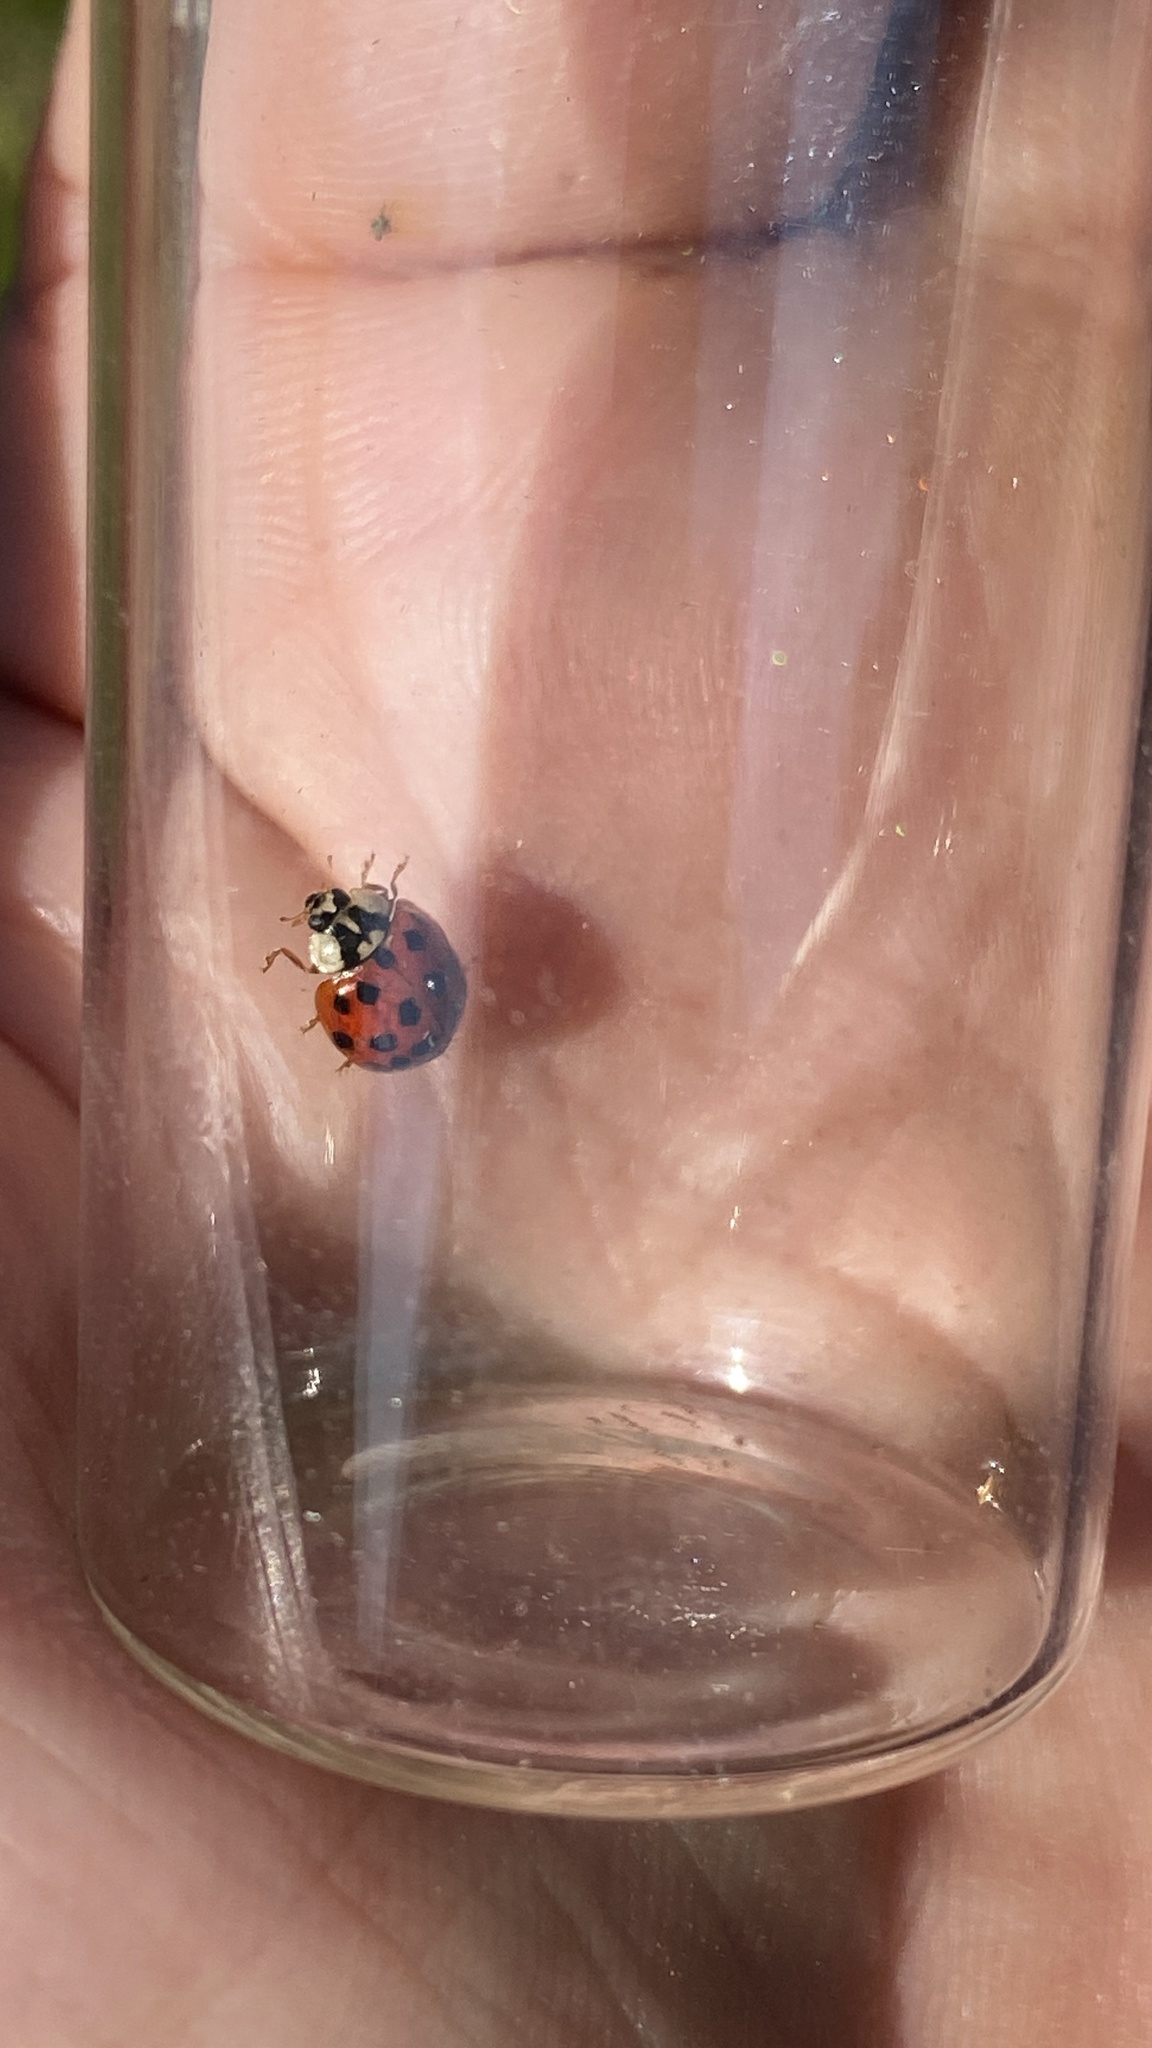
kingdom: Animalia
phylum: Arthropoda
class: Insecta
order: Coleoptera
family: Coccinellidae
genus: Harmonia
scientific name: Harmonia axyridis
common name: Harlequin ladybird
